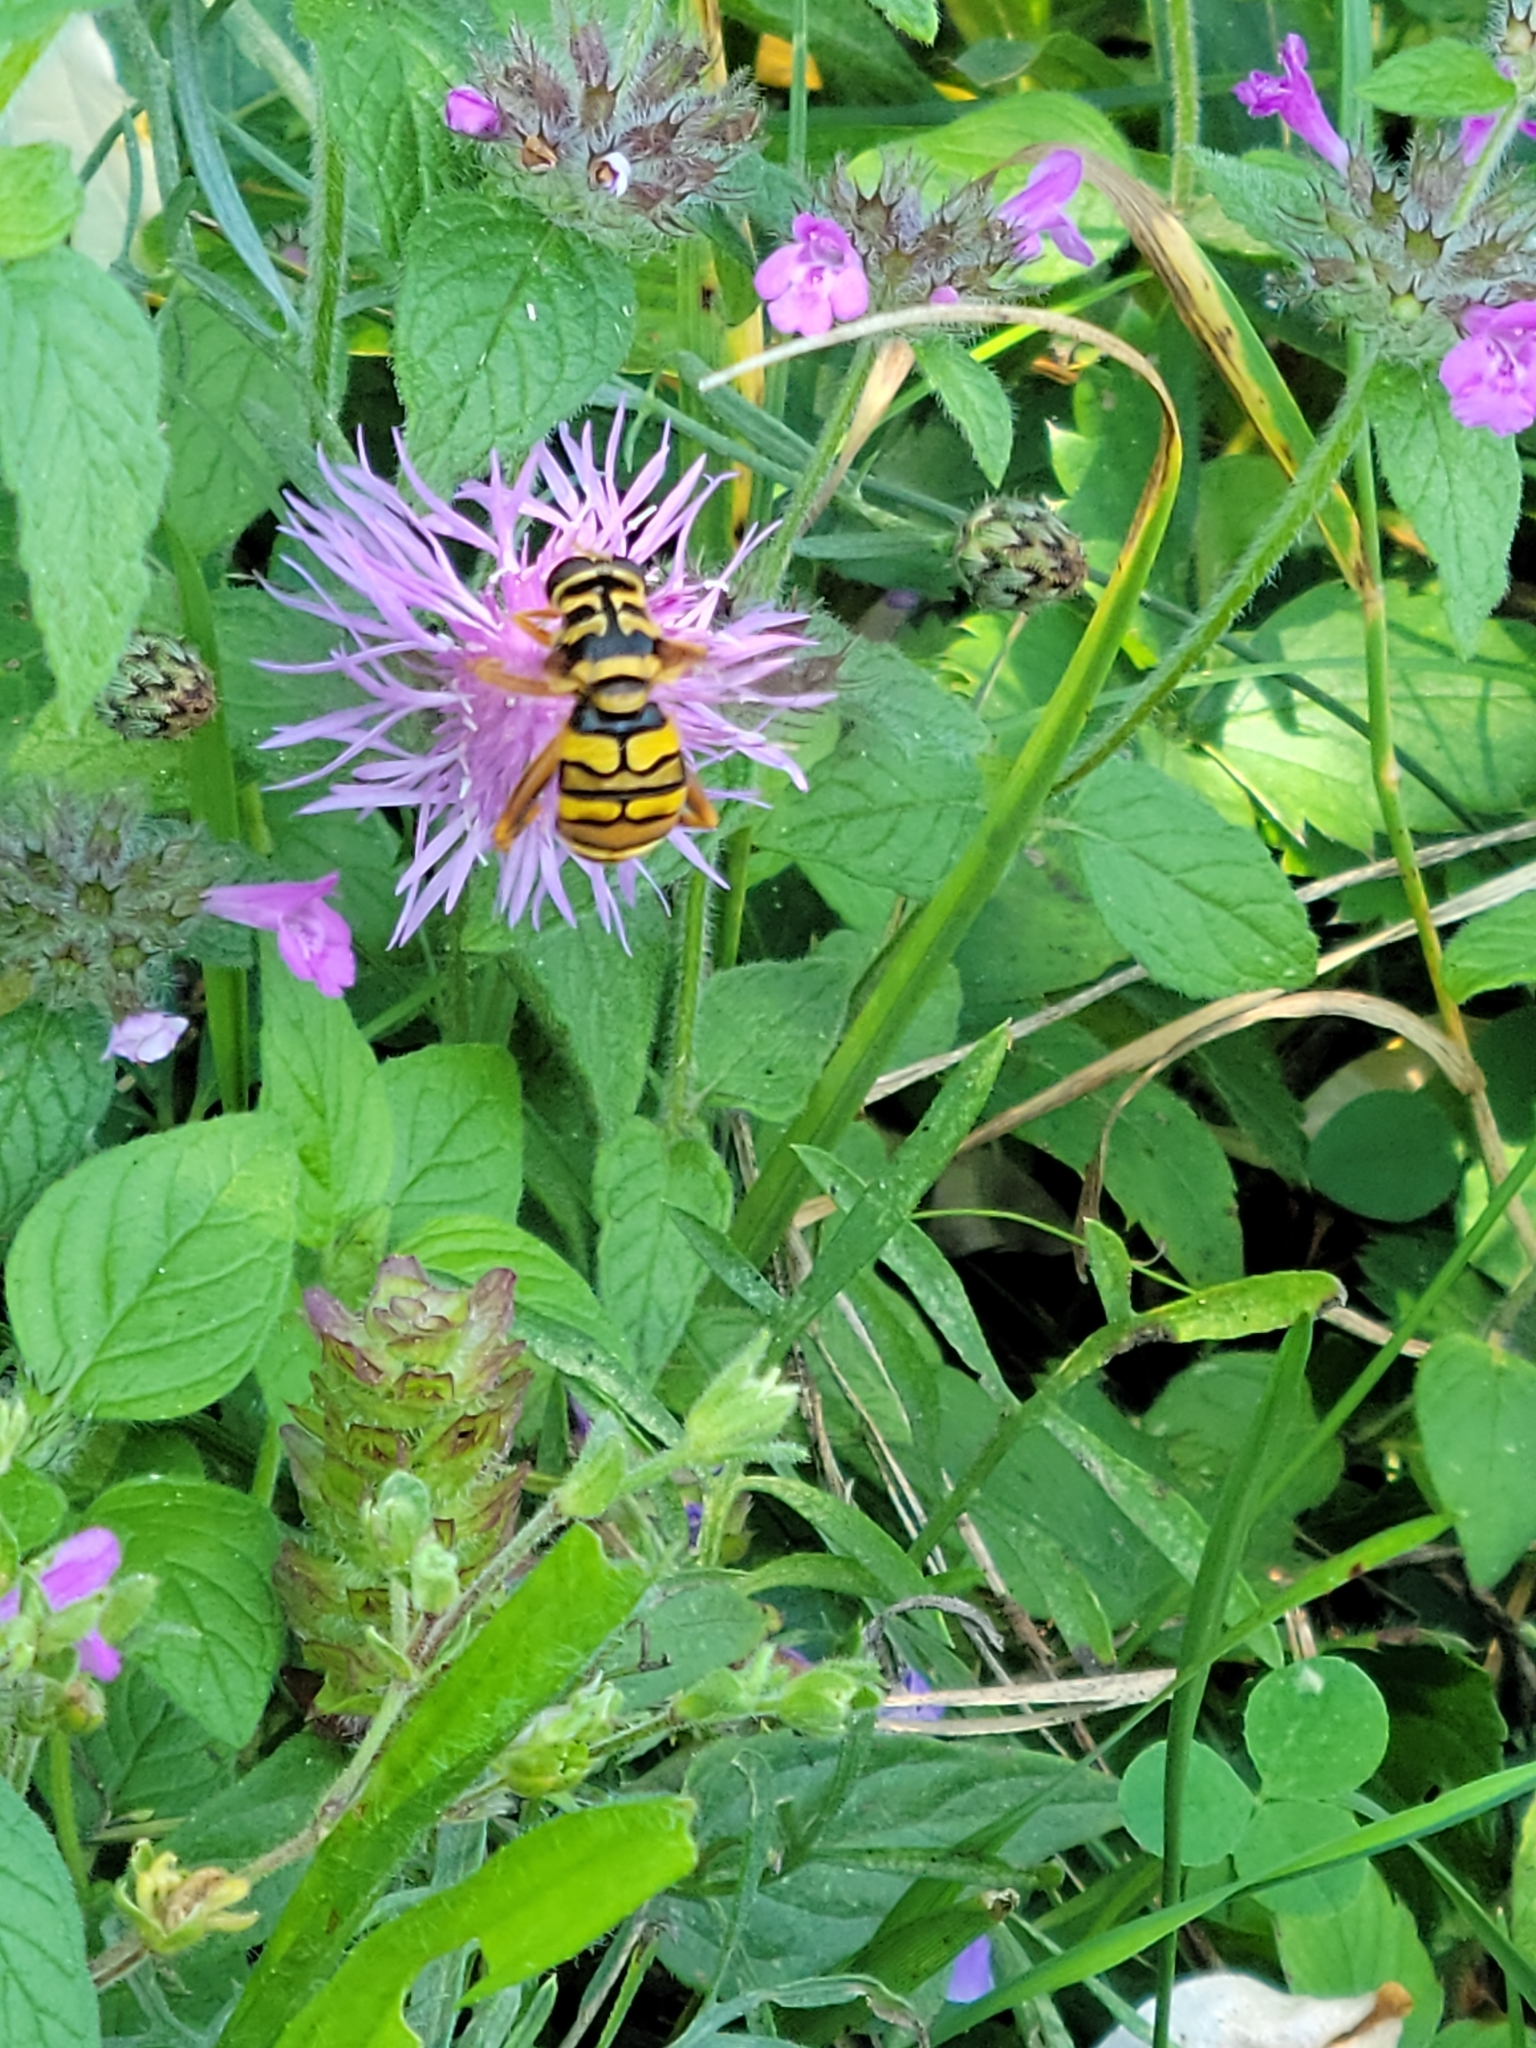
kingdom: Animalia
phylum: Arthropoda
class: Insecta
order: Diptera
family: Syrphidae
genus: Milesia
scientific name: Milesia virginiensis
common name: Virginia giant
